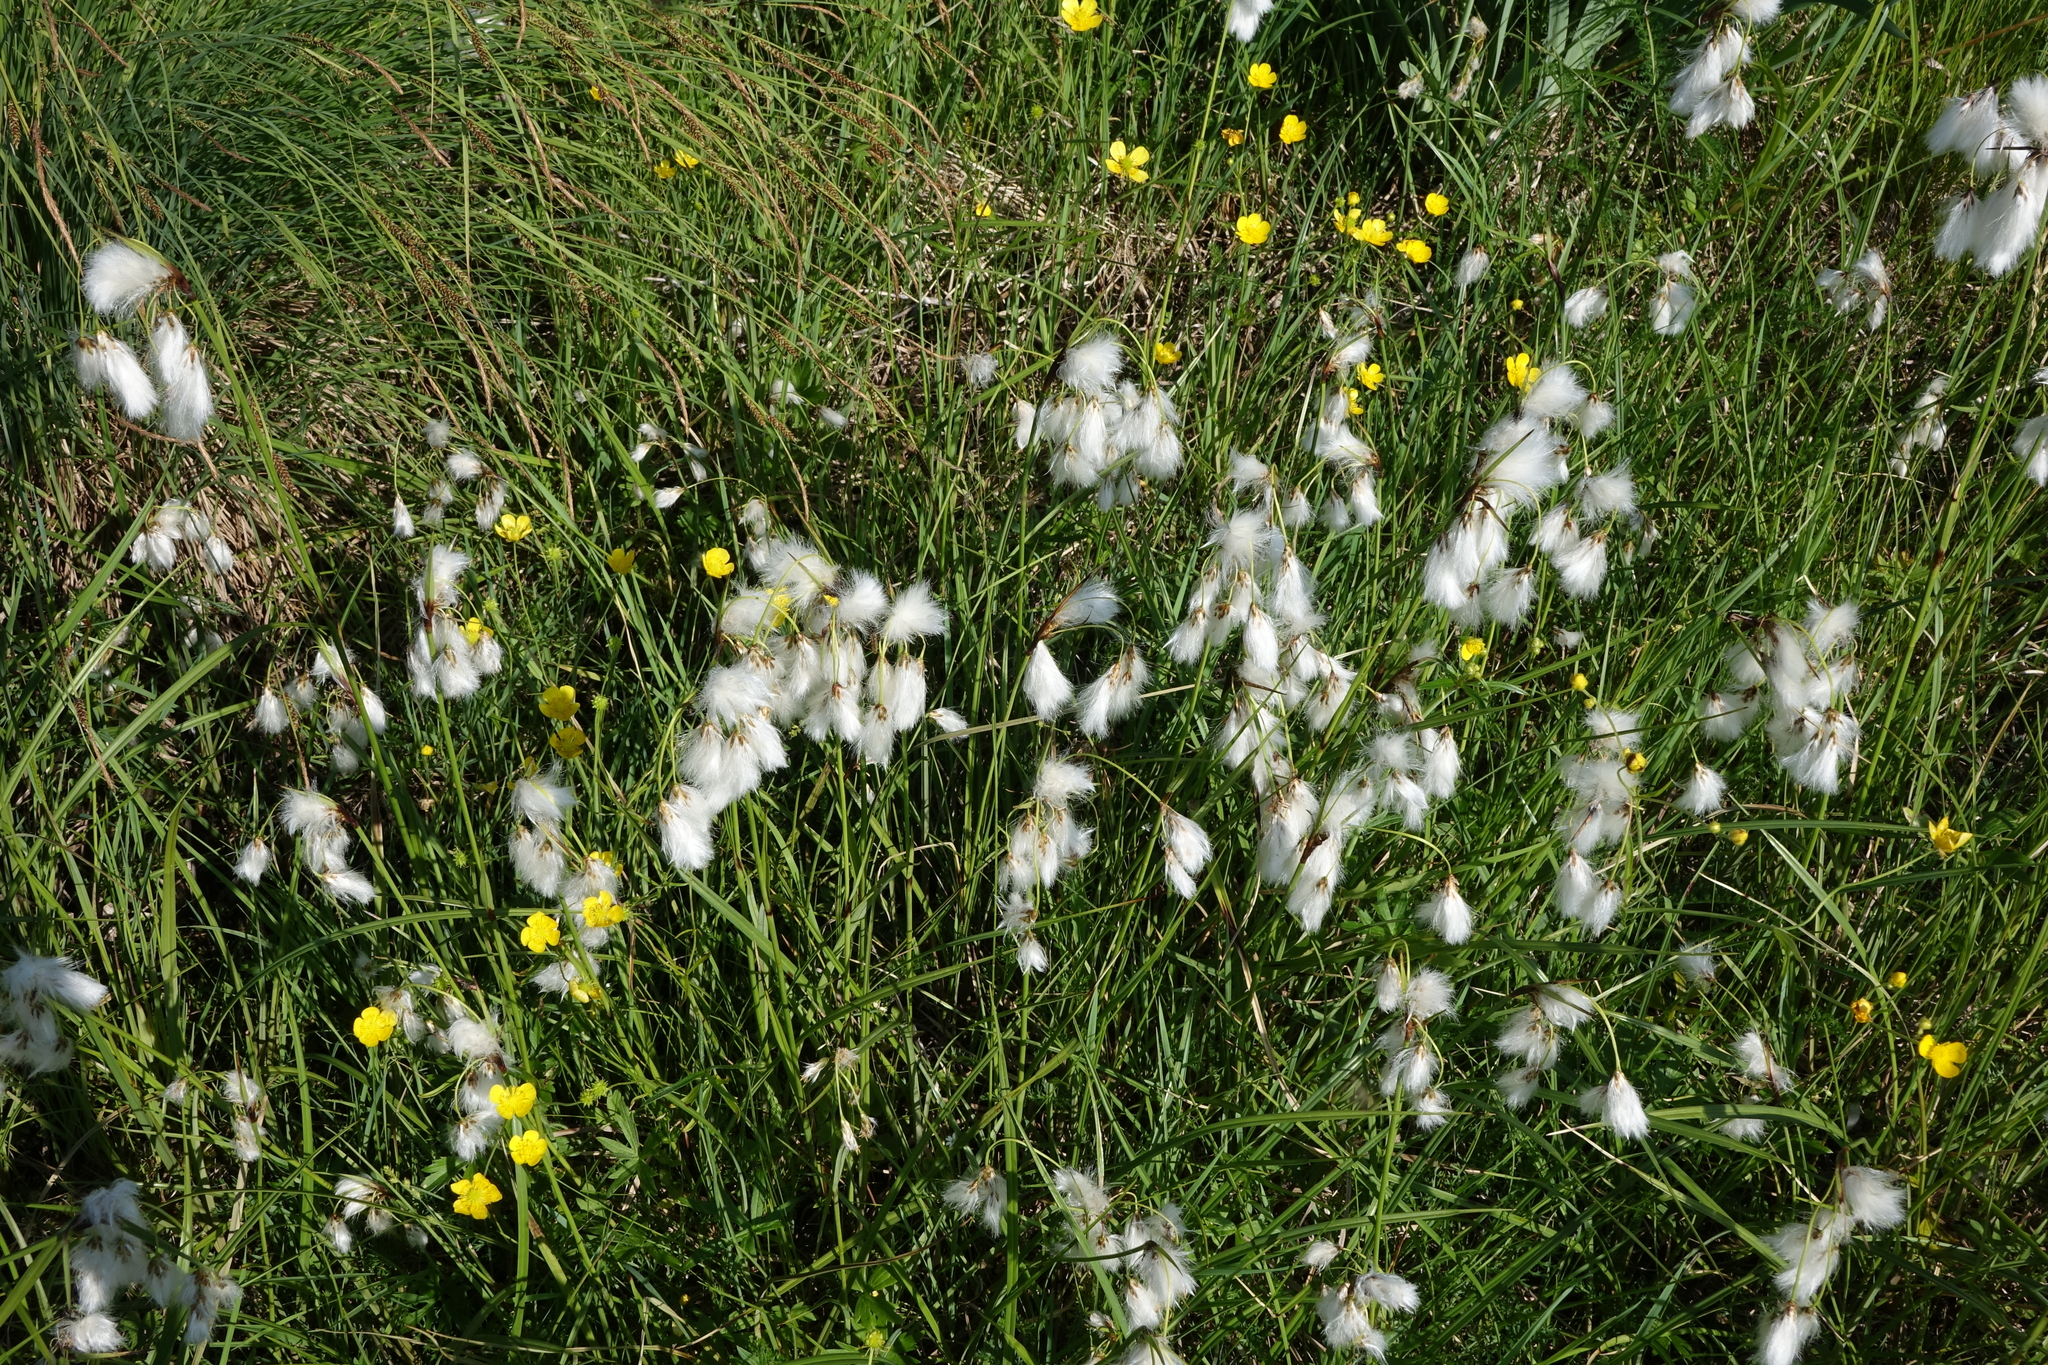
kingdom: Plantae
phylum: Tracheophyta
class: Liliopsida
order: Poales
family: Cyperaceae
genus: Eriophorum
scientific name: Eriophorum angustifolium
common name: Common cottongrass
